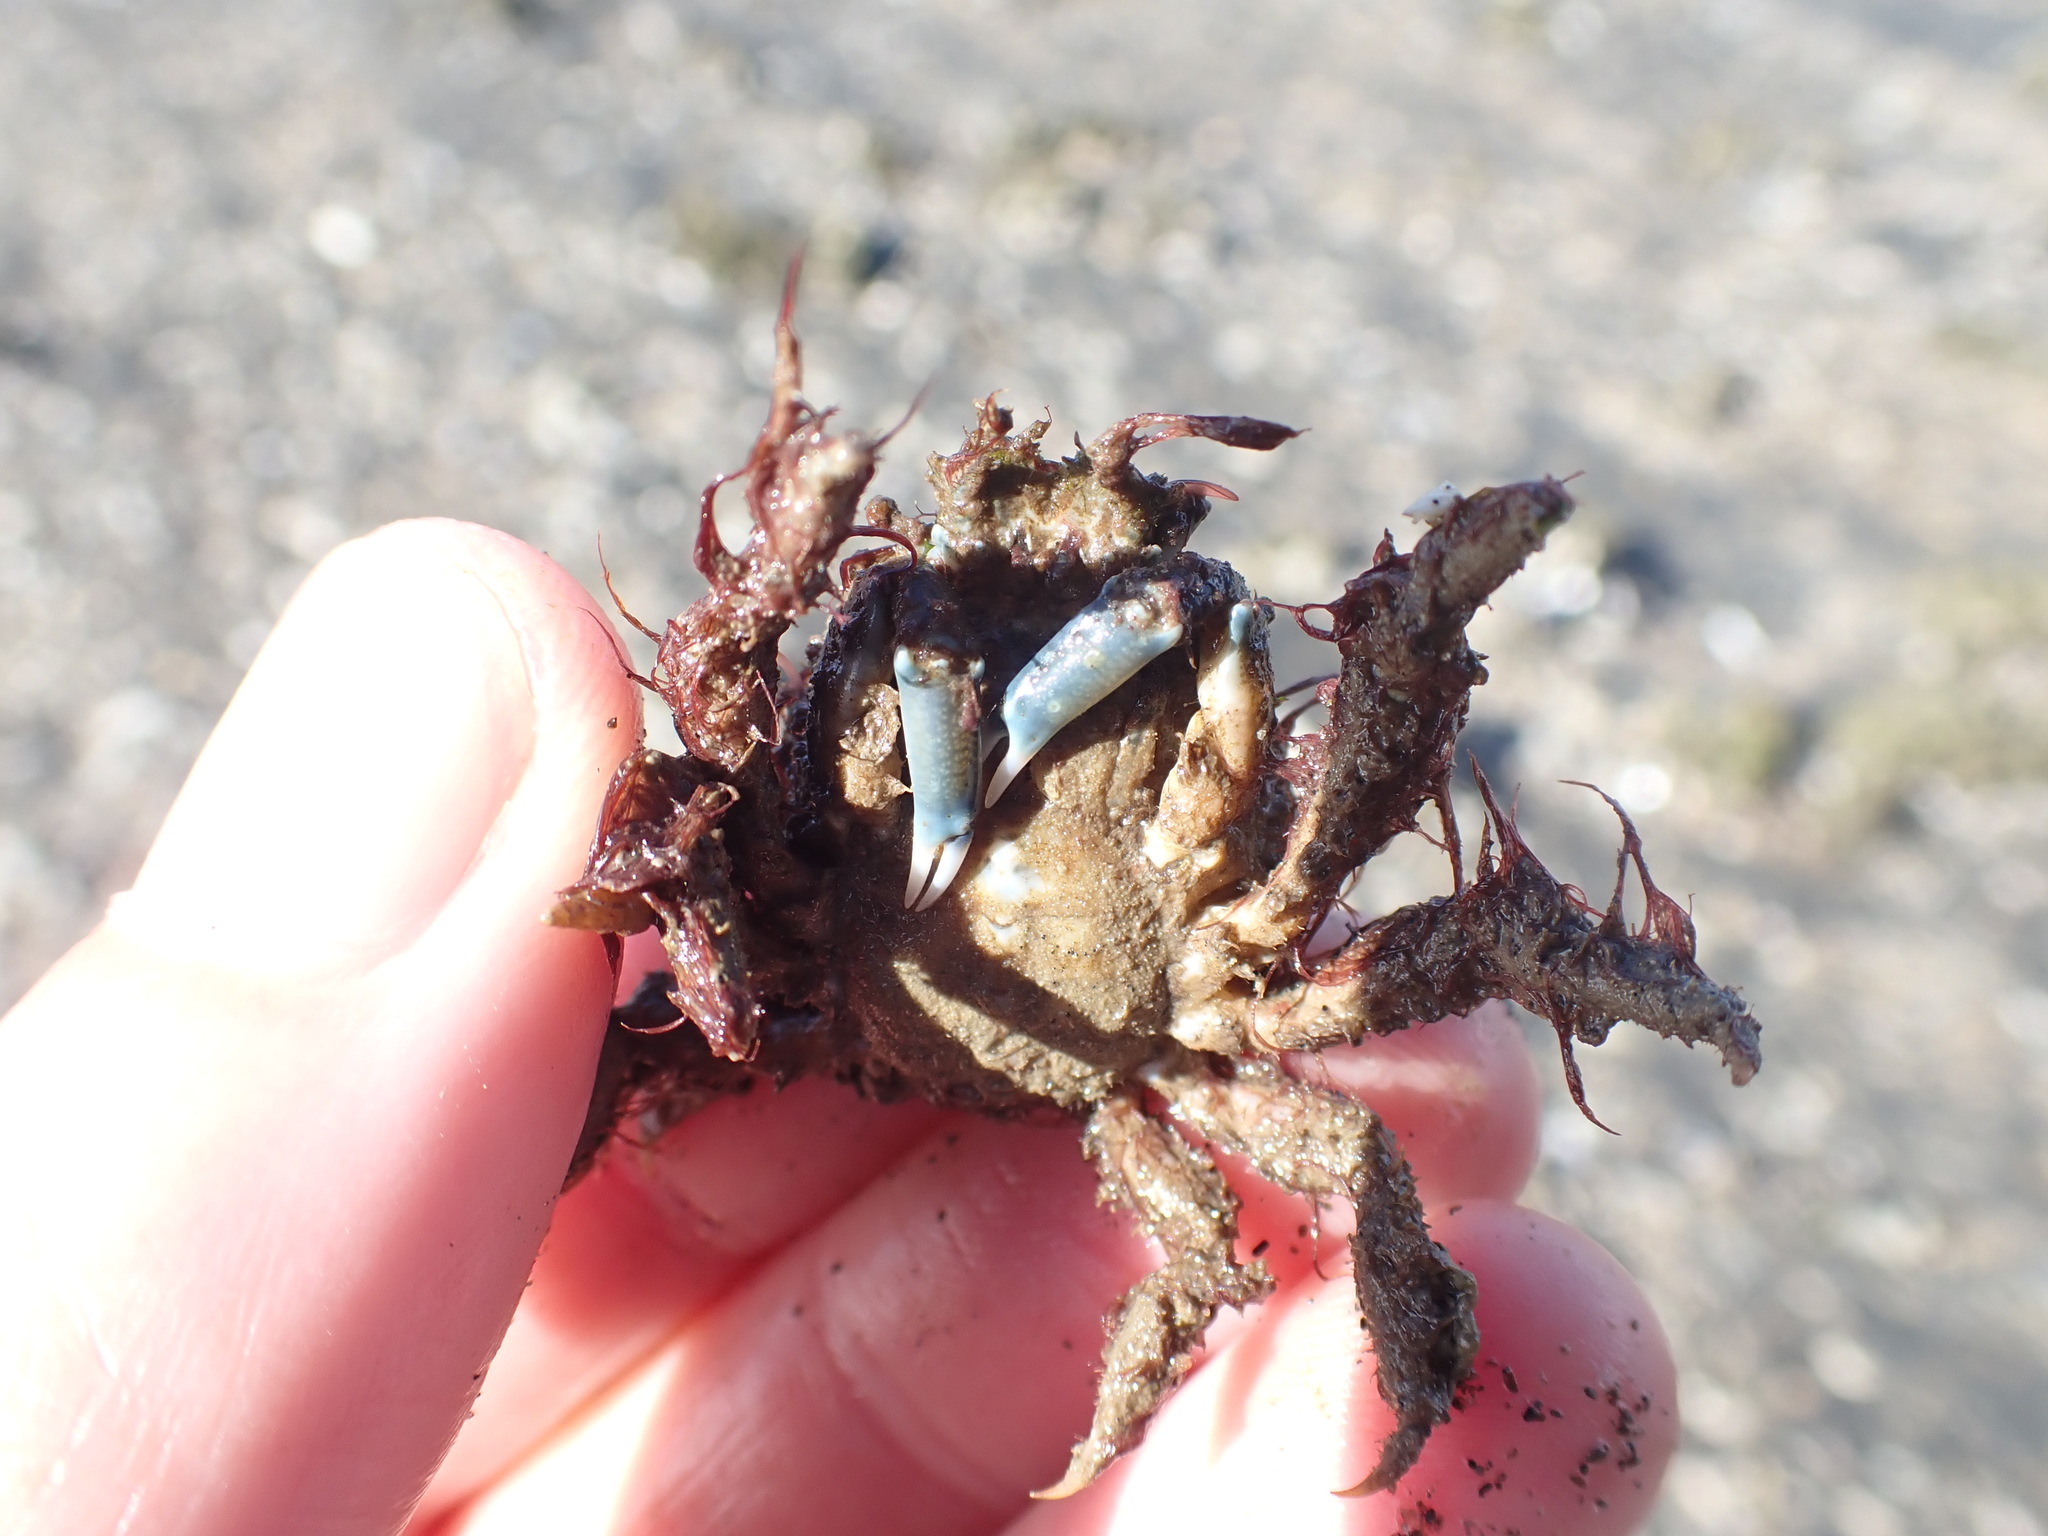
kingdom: Animalia
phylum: Arthropoda
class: Malacostraca
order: Decapoda
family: Majidae
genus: Notomithrax
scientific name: Notomithrax minor
